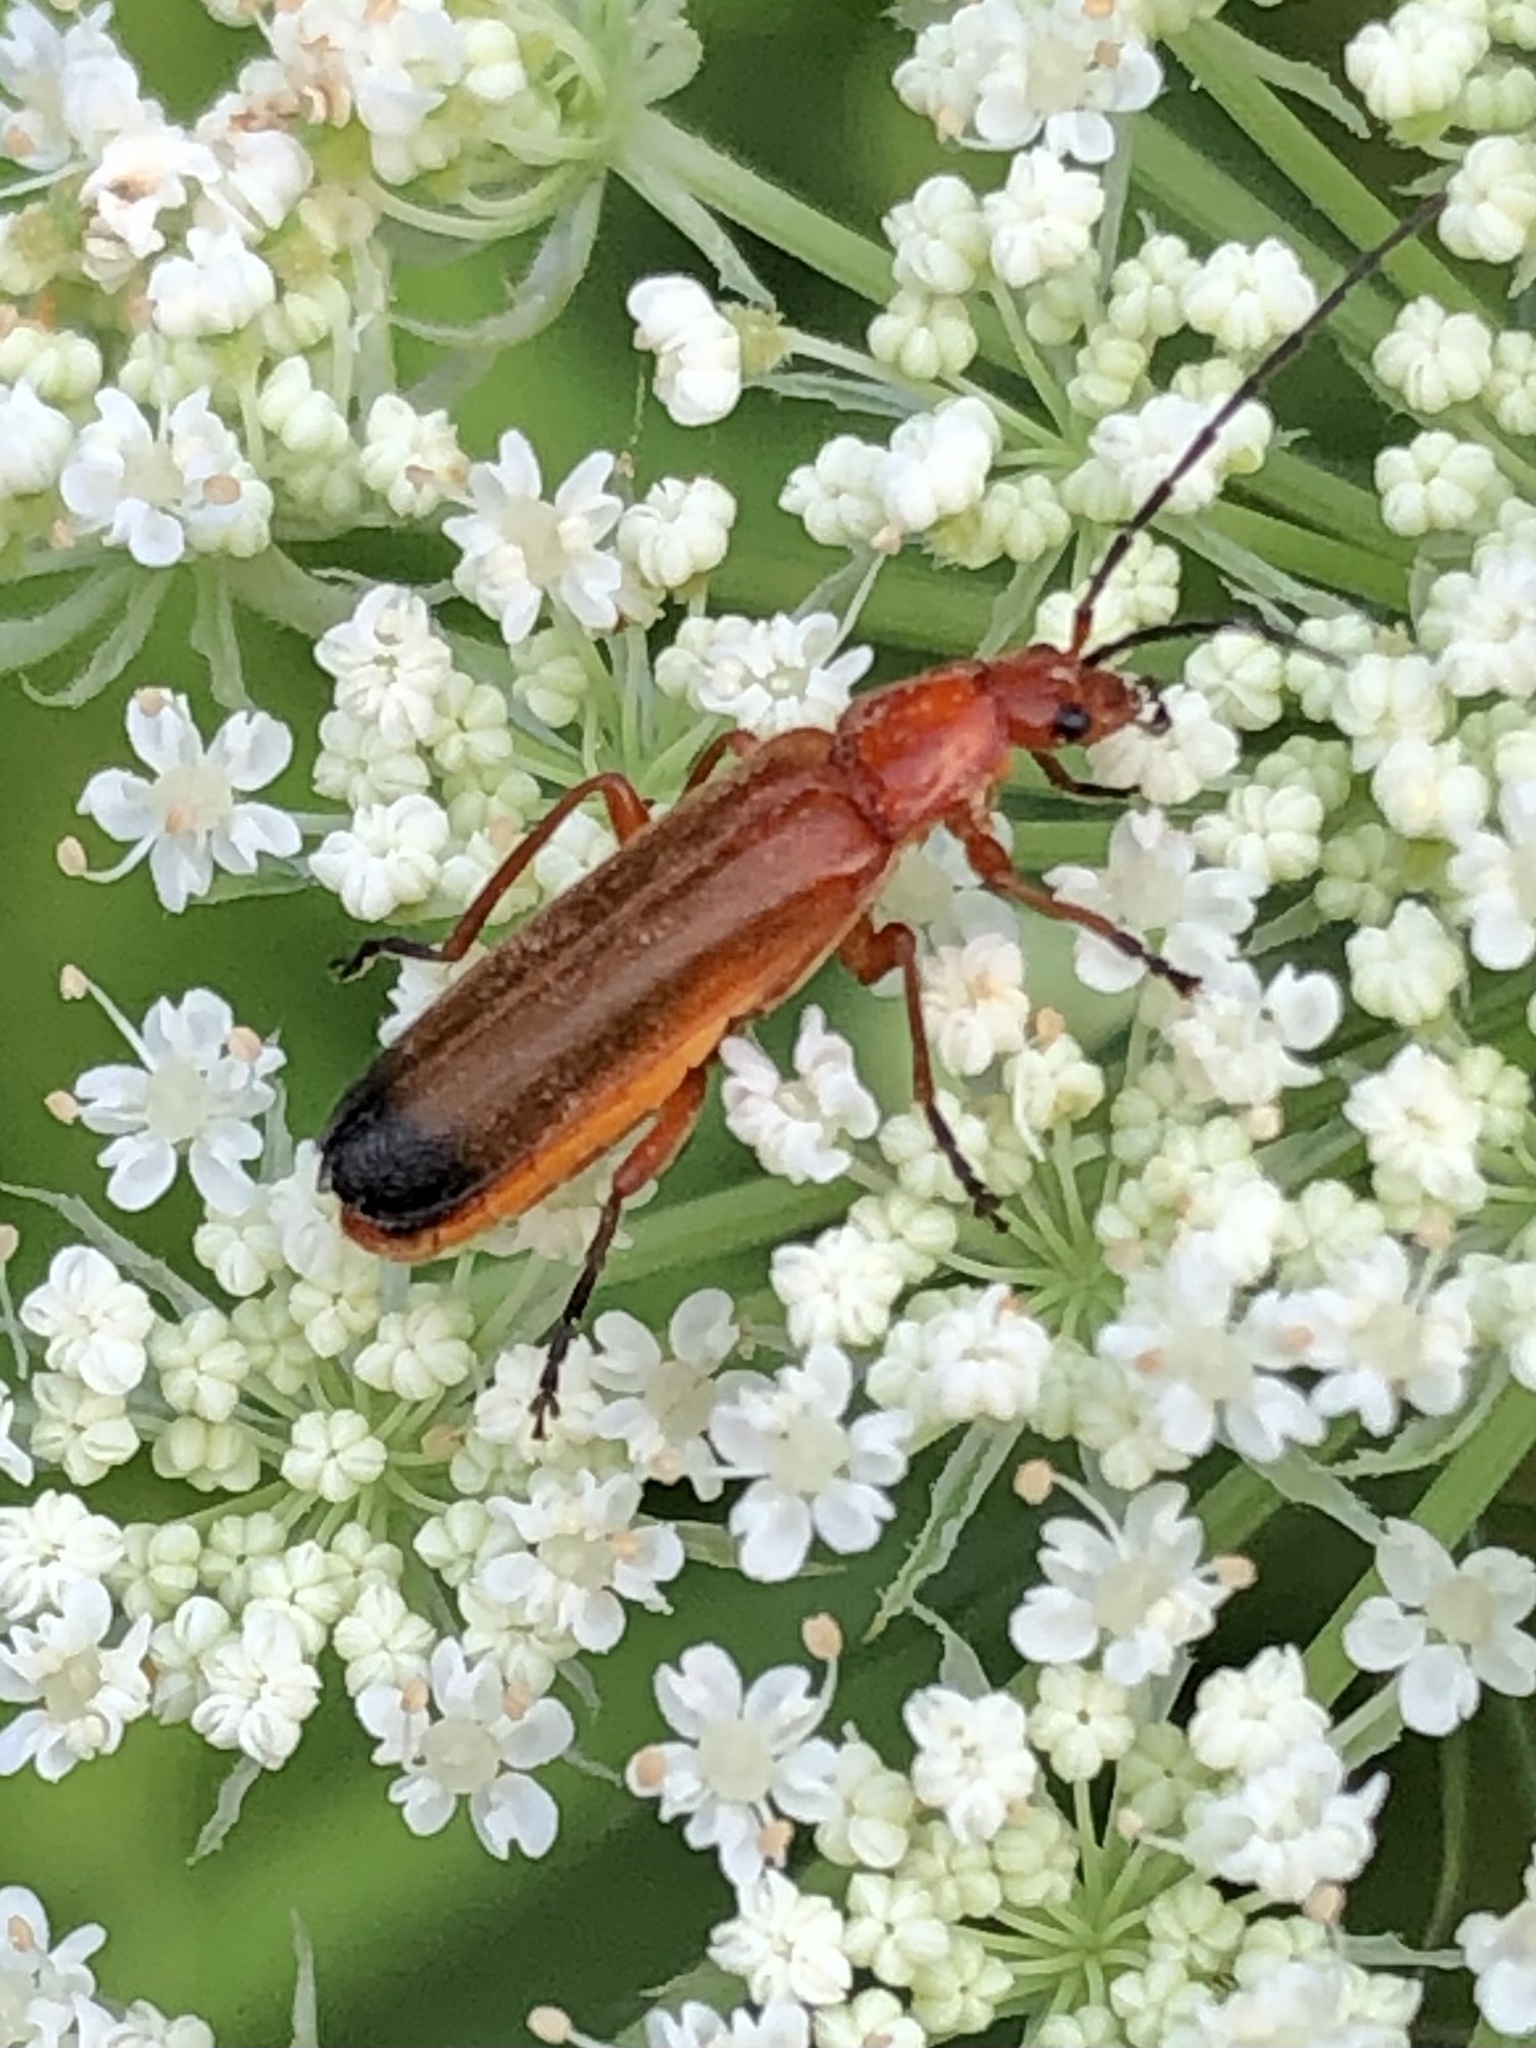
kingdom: Animalia
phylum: Arthropoda
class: Insecta
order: Coleoptera
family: Cantharidae
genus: Rhagonycha
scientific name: Rhagonycha fulva
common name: Common red soldier beetle
